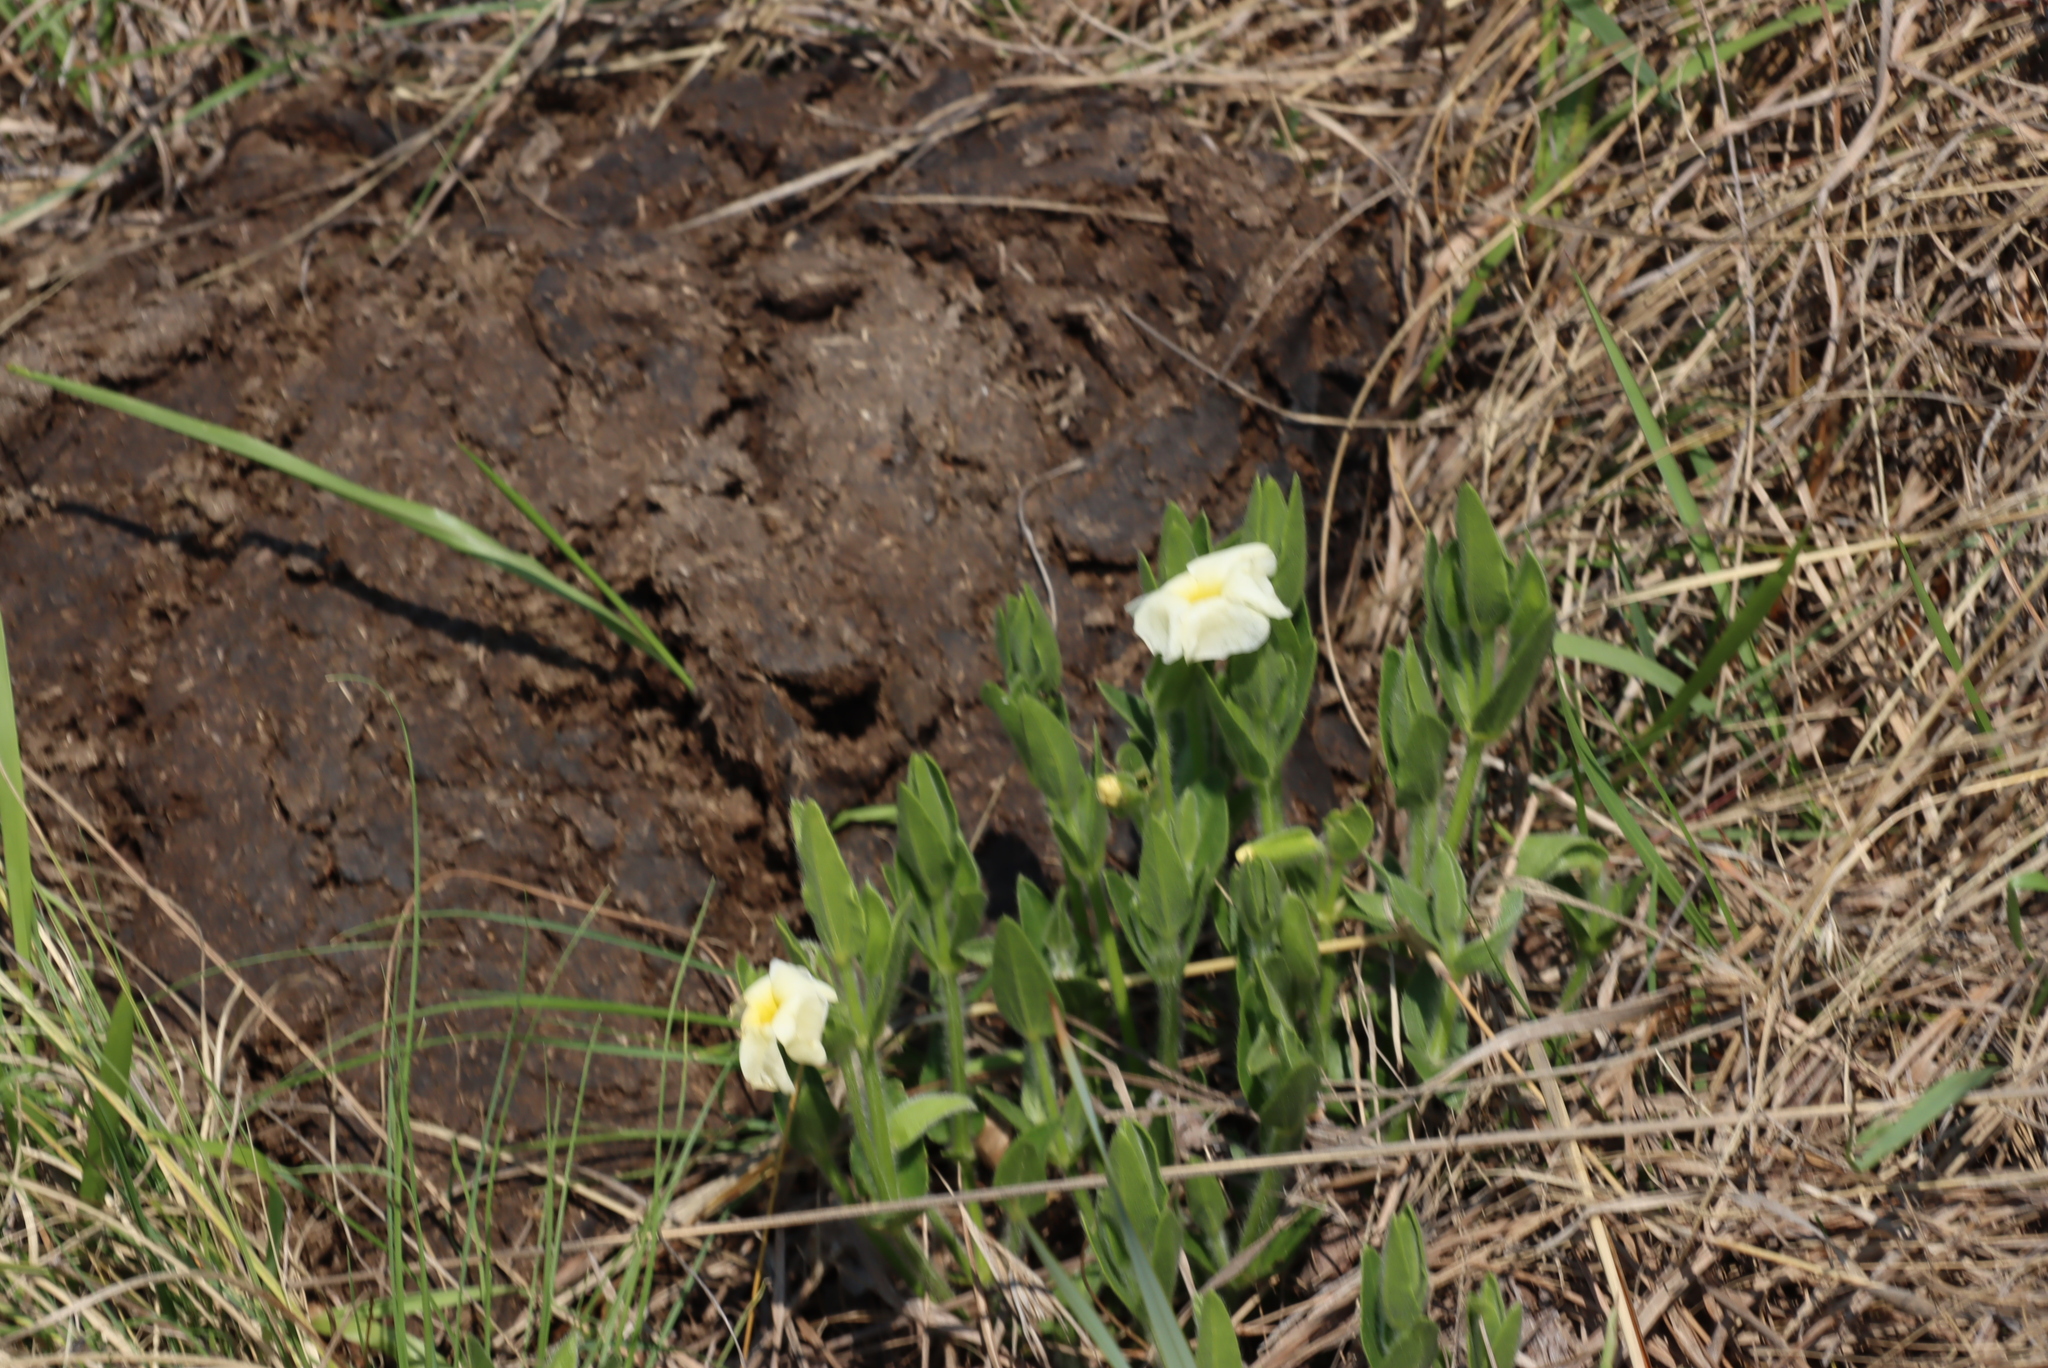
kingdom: Plantae
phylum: Tracheophyta
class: Magnoliopsida
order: Lamiales
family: Acanthaceae
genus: Thunbergia
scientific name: Thunbergia atriplicifolia
